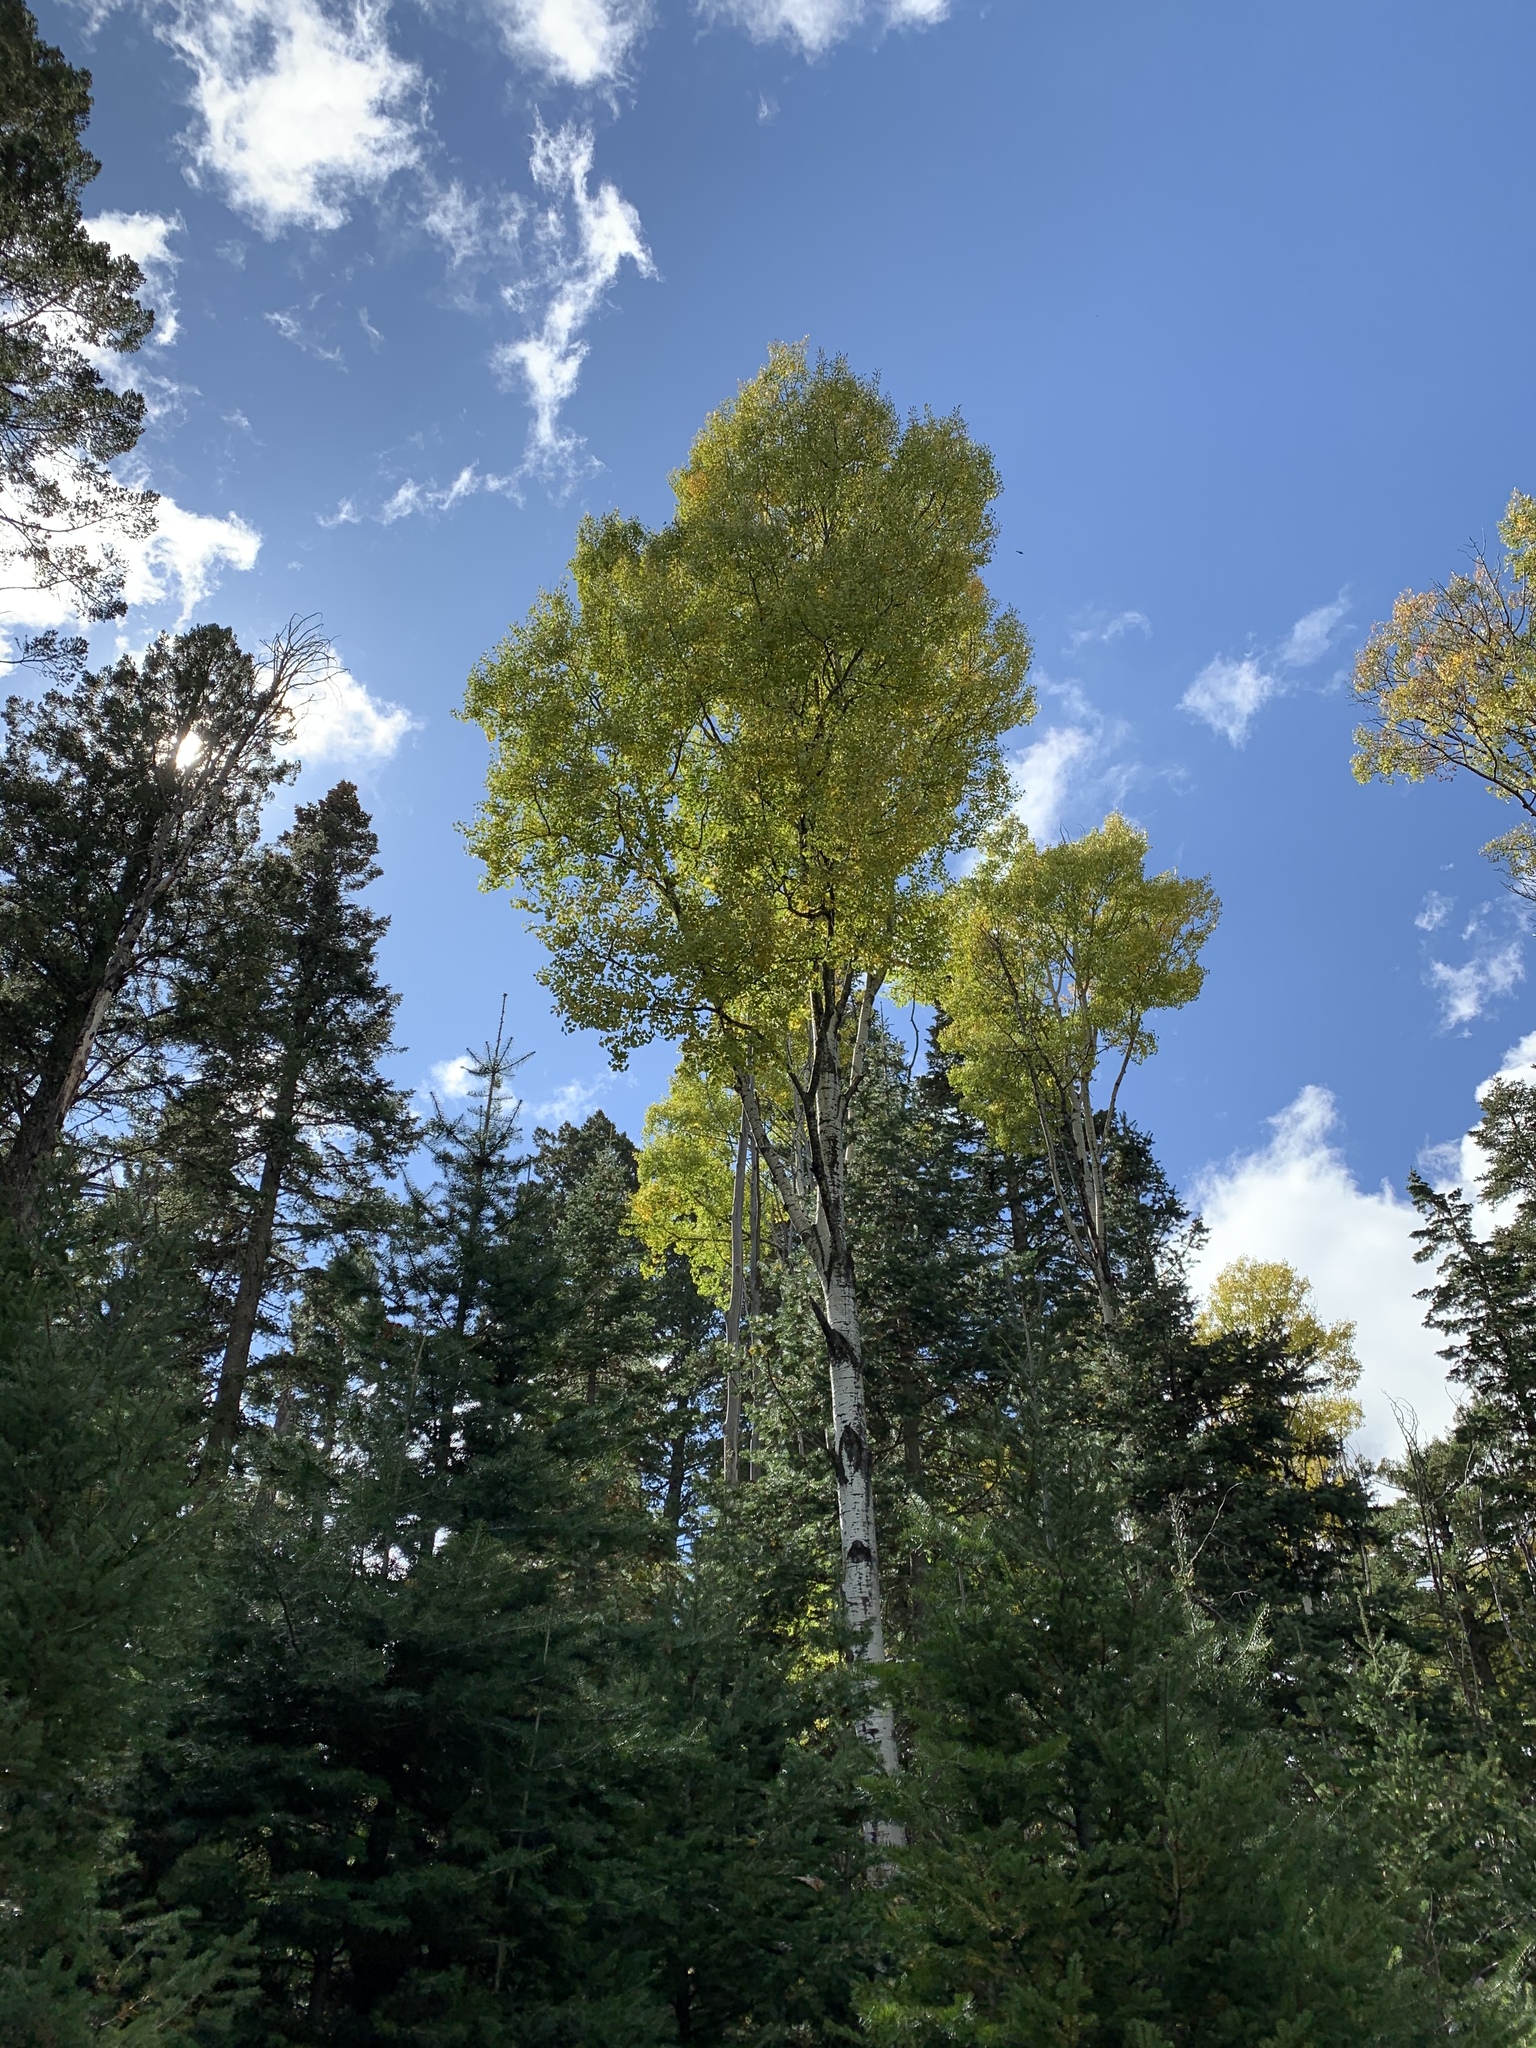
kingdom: Plantae
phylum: Tracheophyta
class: Magnoliopsida
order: Malpighiales
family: Salicaceae
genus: Populus
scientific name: Populus tremuloides
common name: Quaking aspen
